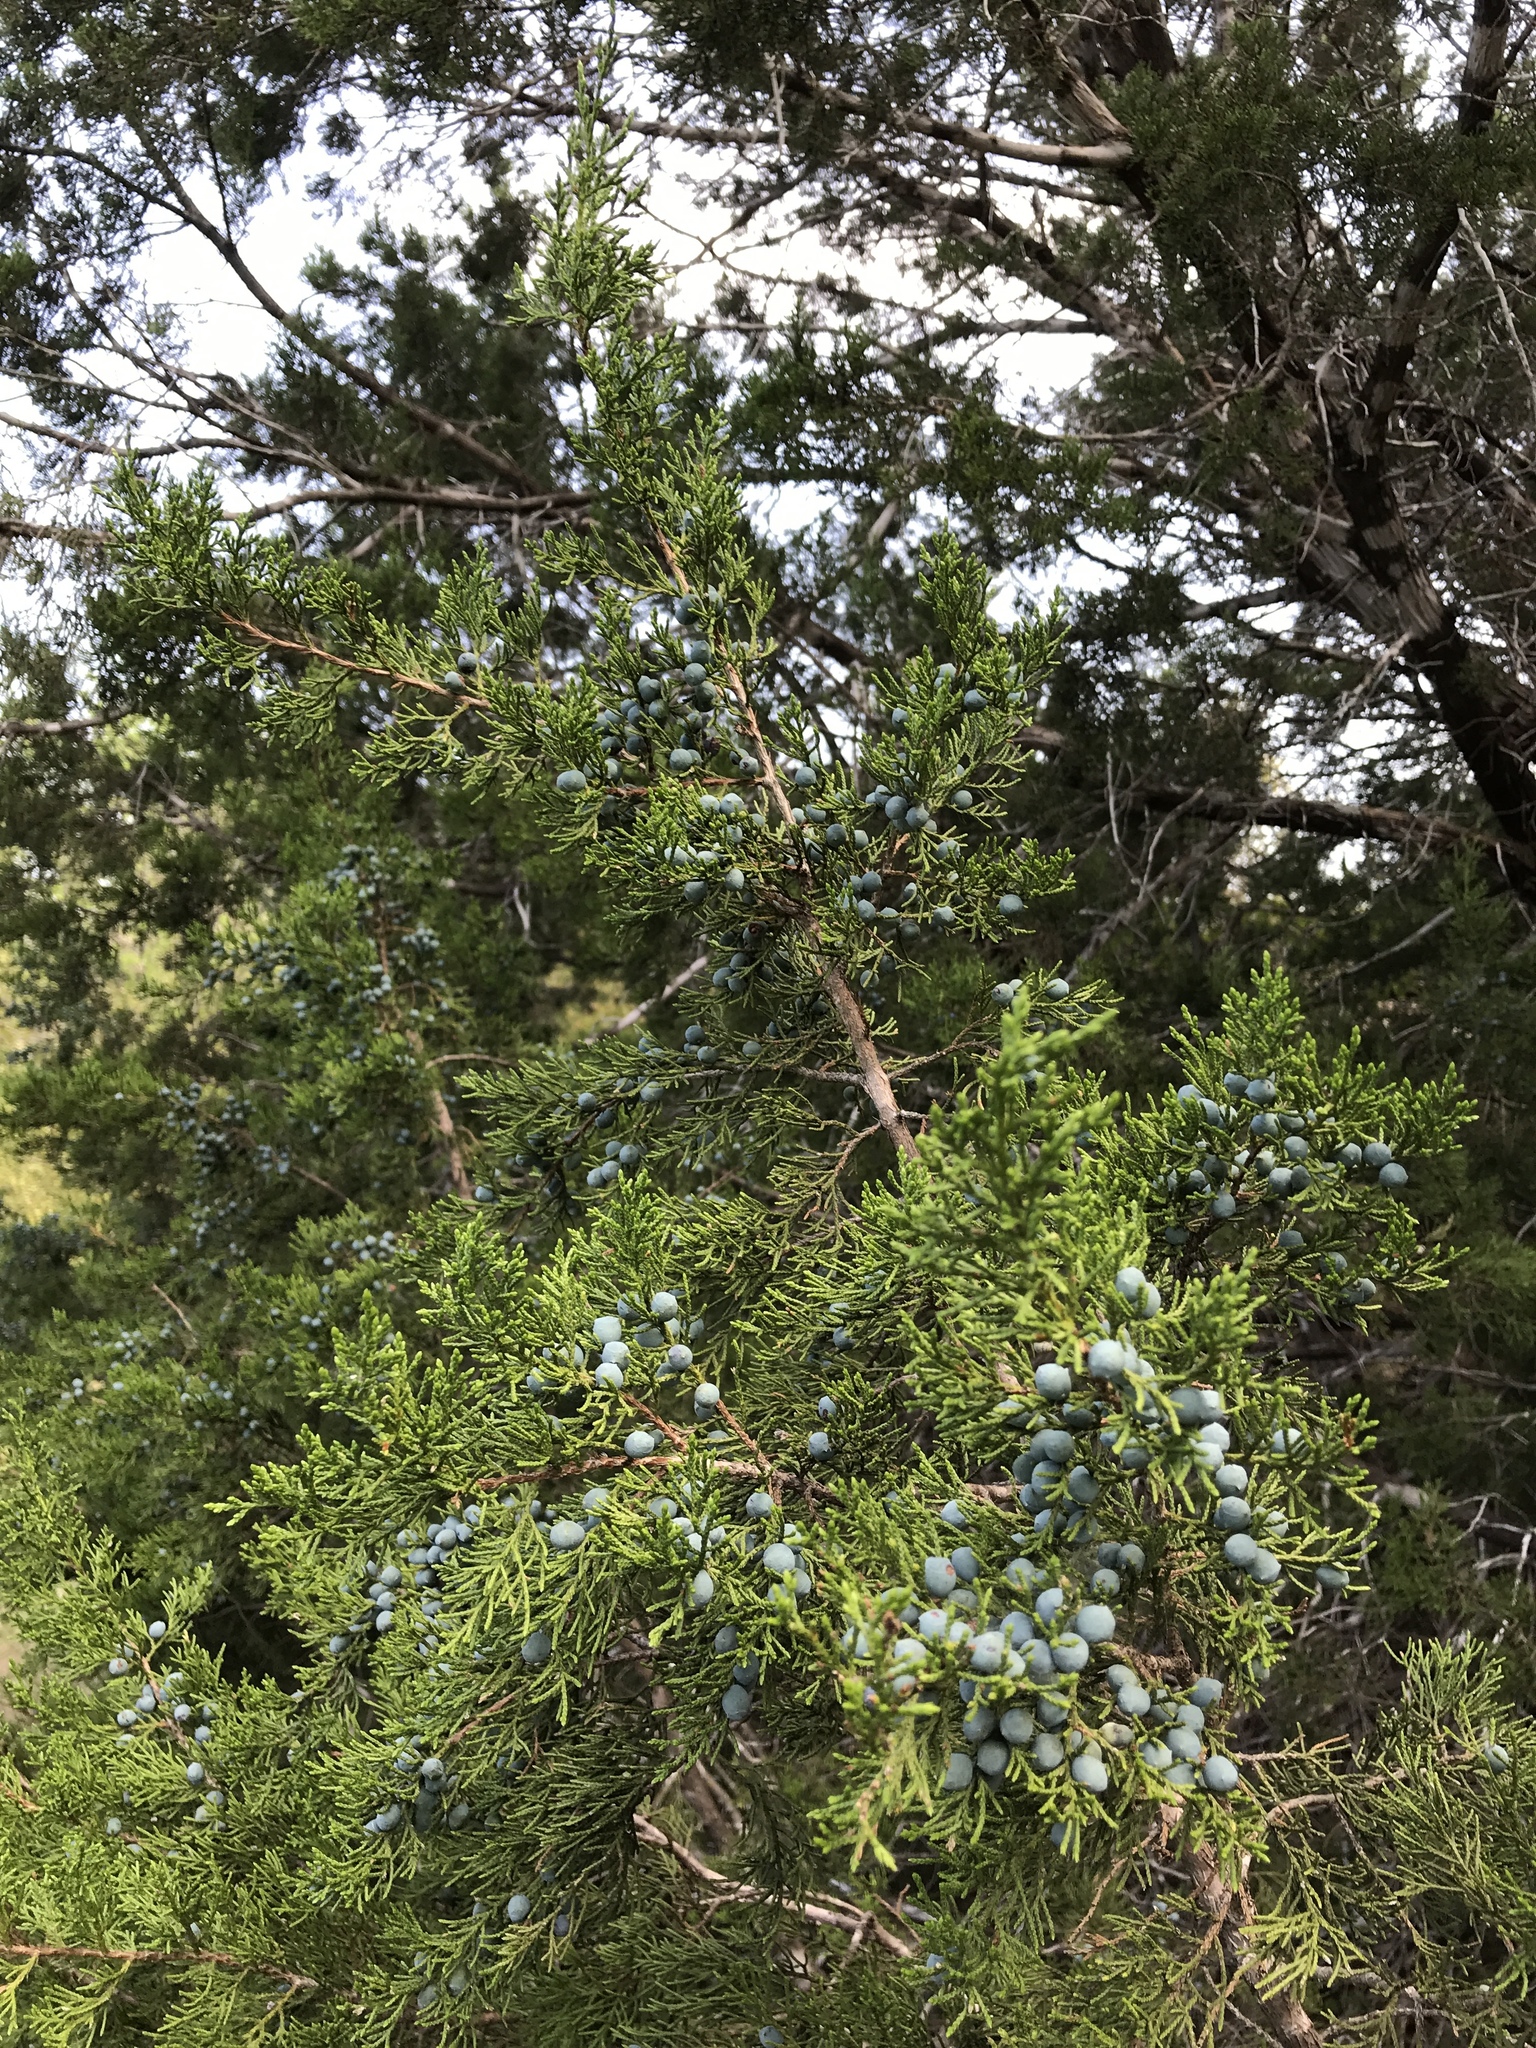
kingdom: Plantae
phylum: Tracheophyta
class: Pinopsida
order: Pinales
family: Cupressaceae
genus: Juniperus
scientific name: Juniperus ashei
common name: Mexican juniper
